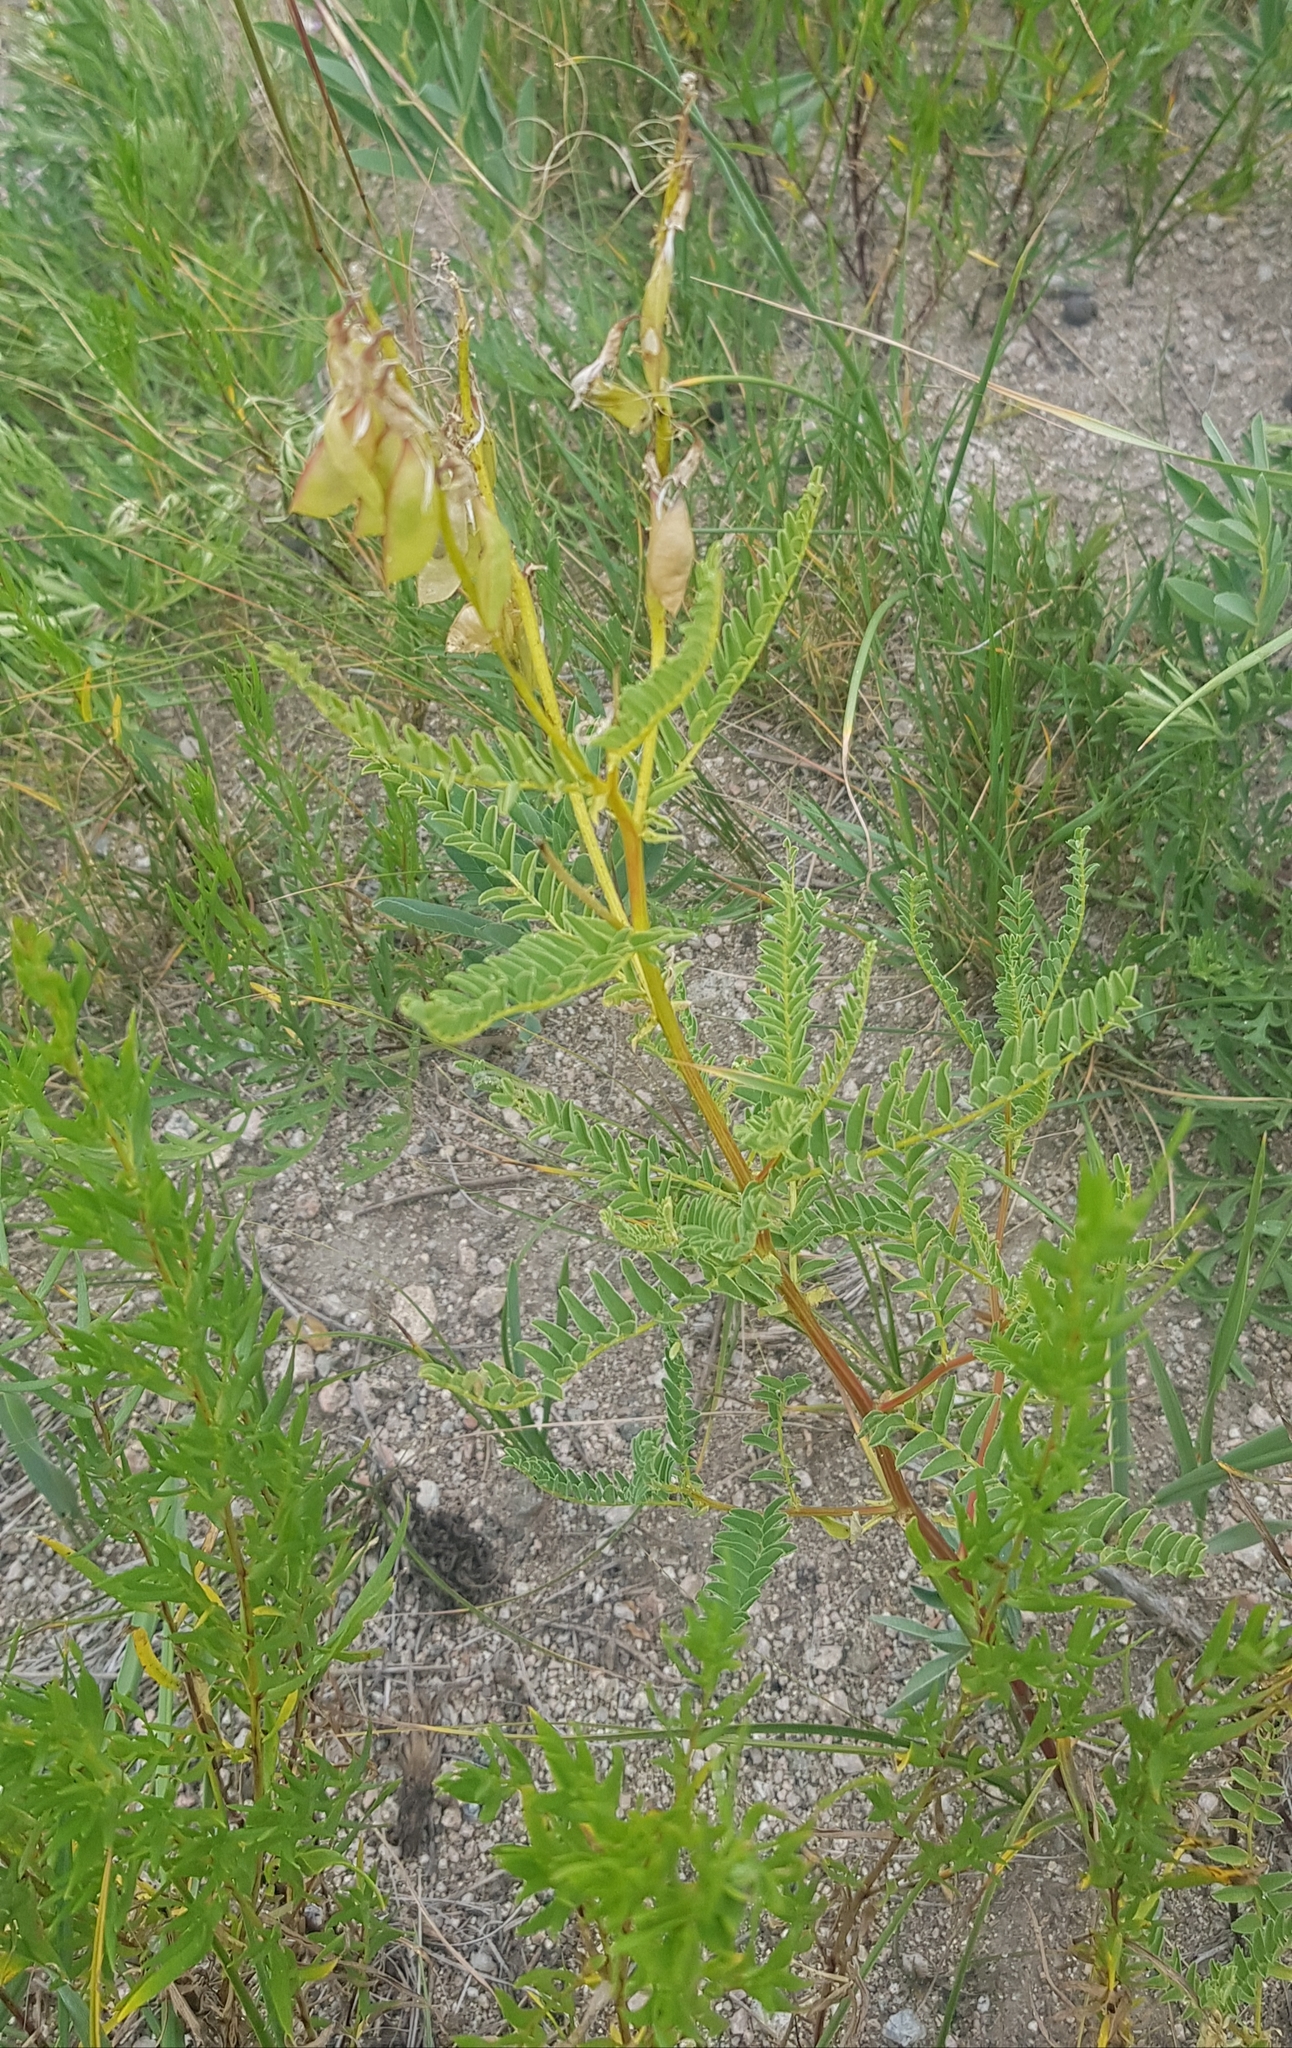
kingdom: Plantae
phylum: Tracheophyta
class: Magnoliopsida
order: Fabales
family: Fabaceae
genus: Astragalus
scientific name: Astragalus mongholicus
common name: Membranous milk-vetch
